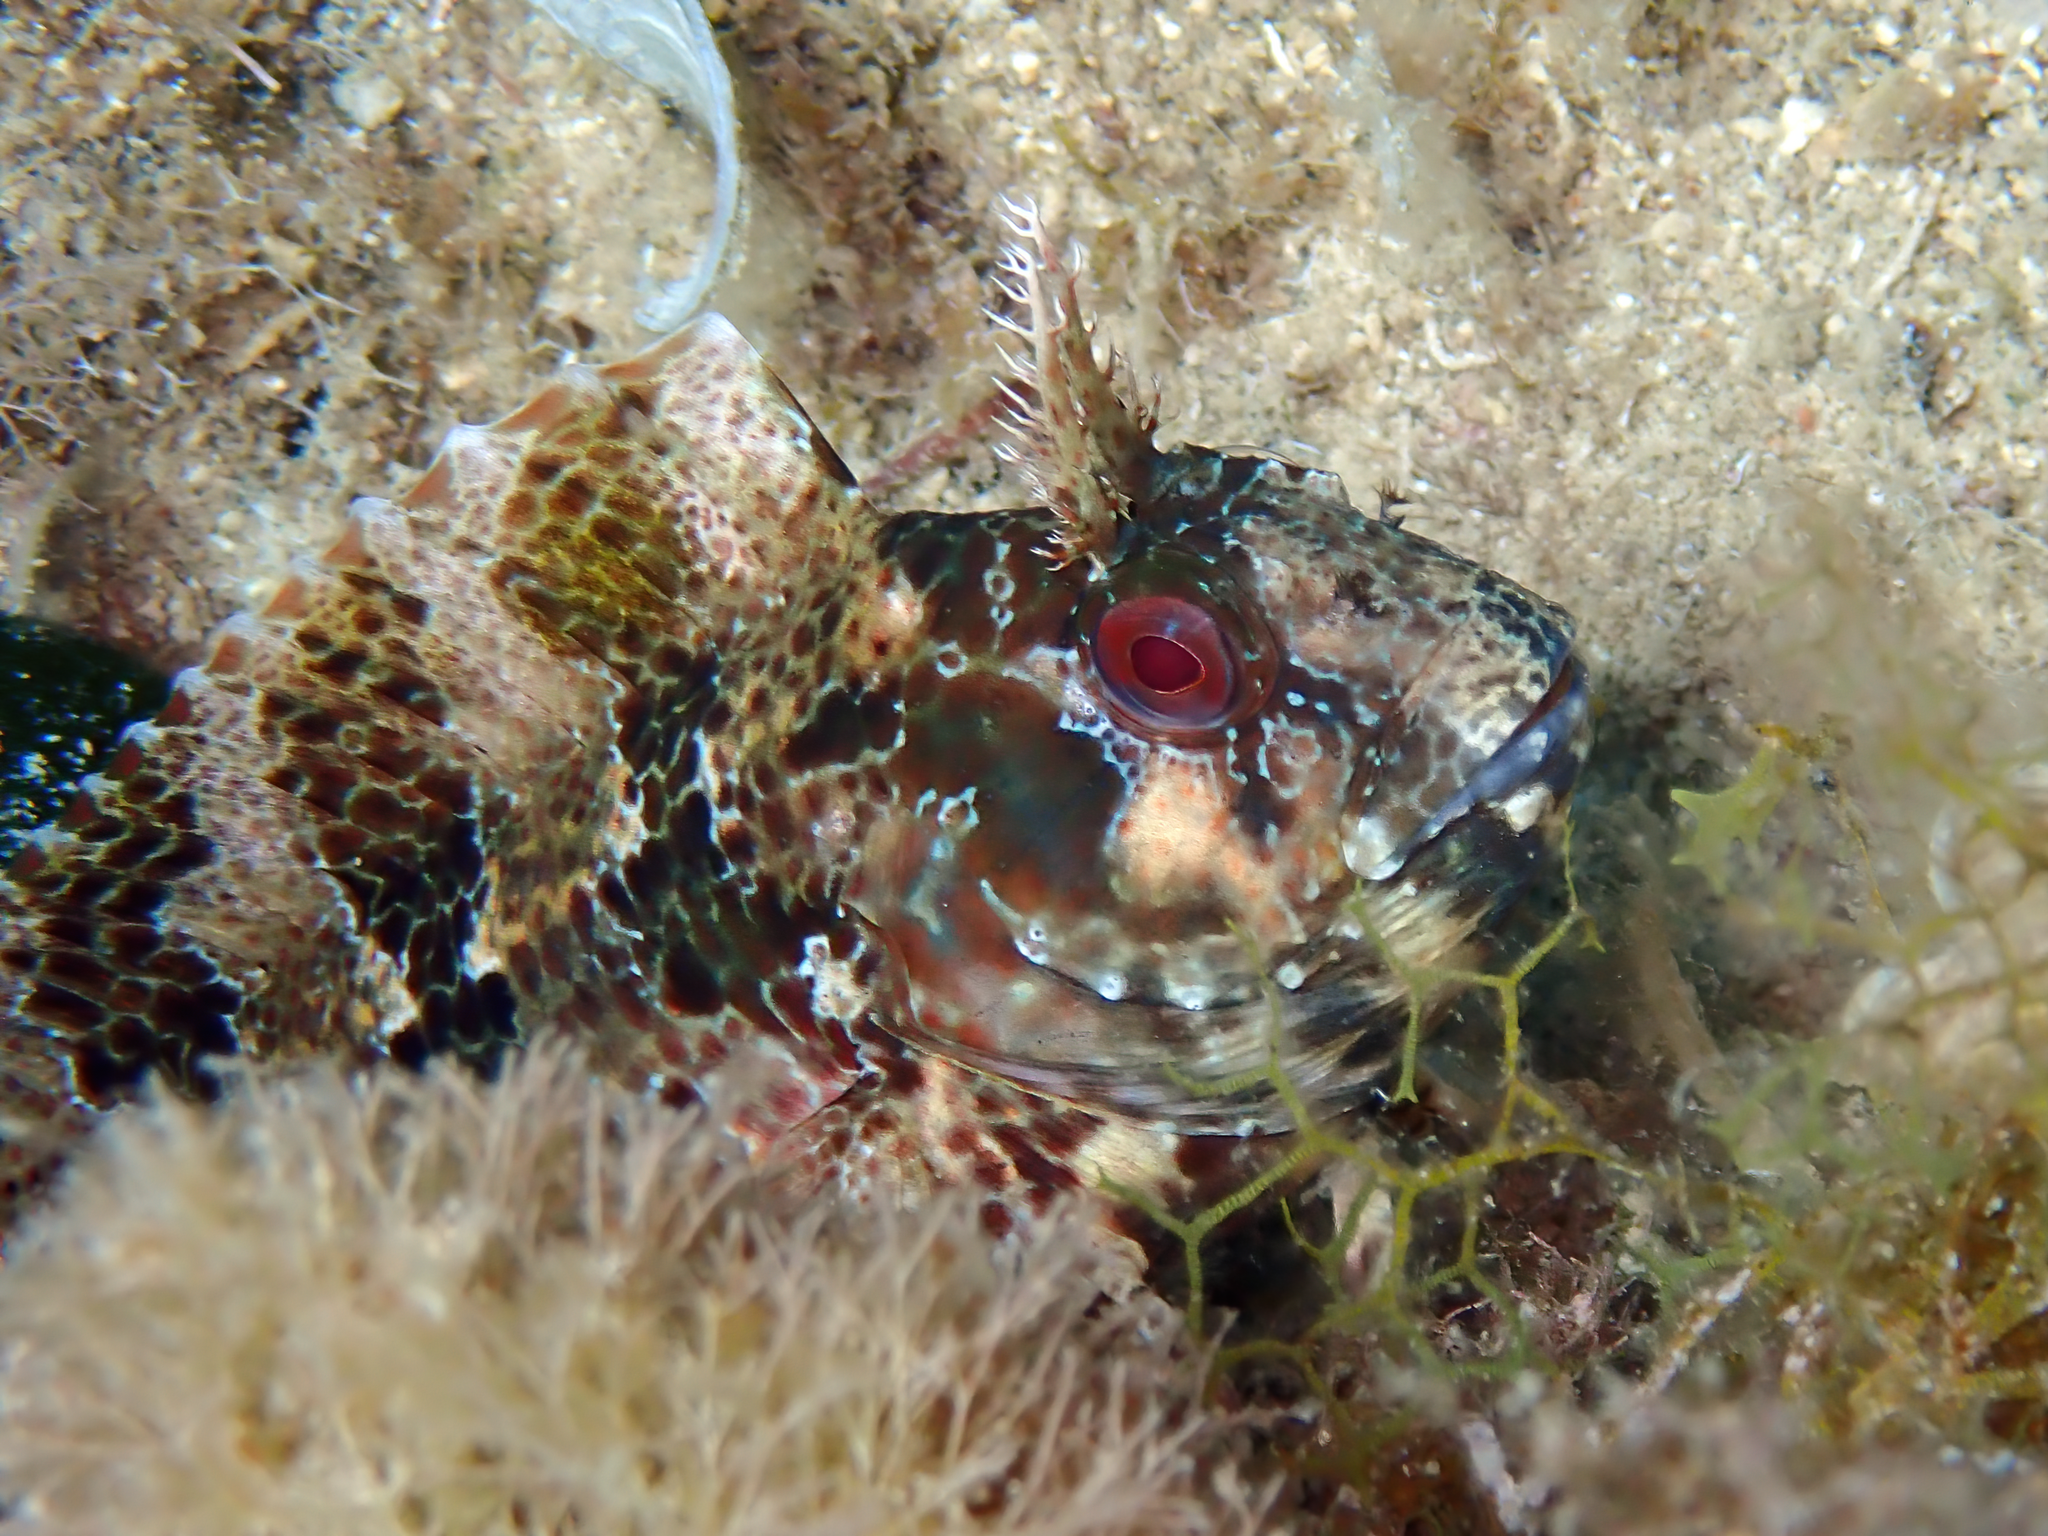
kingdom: Animalia
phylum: Chordata
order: Perciformes
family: Blenniidae
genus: Parablennius
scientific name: Parablennius gattorugine
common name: Tompot blenny
